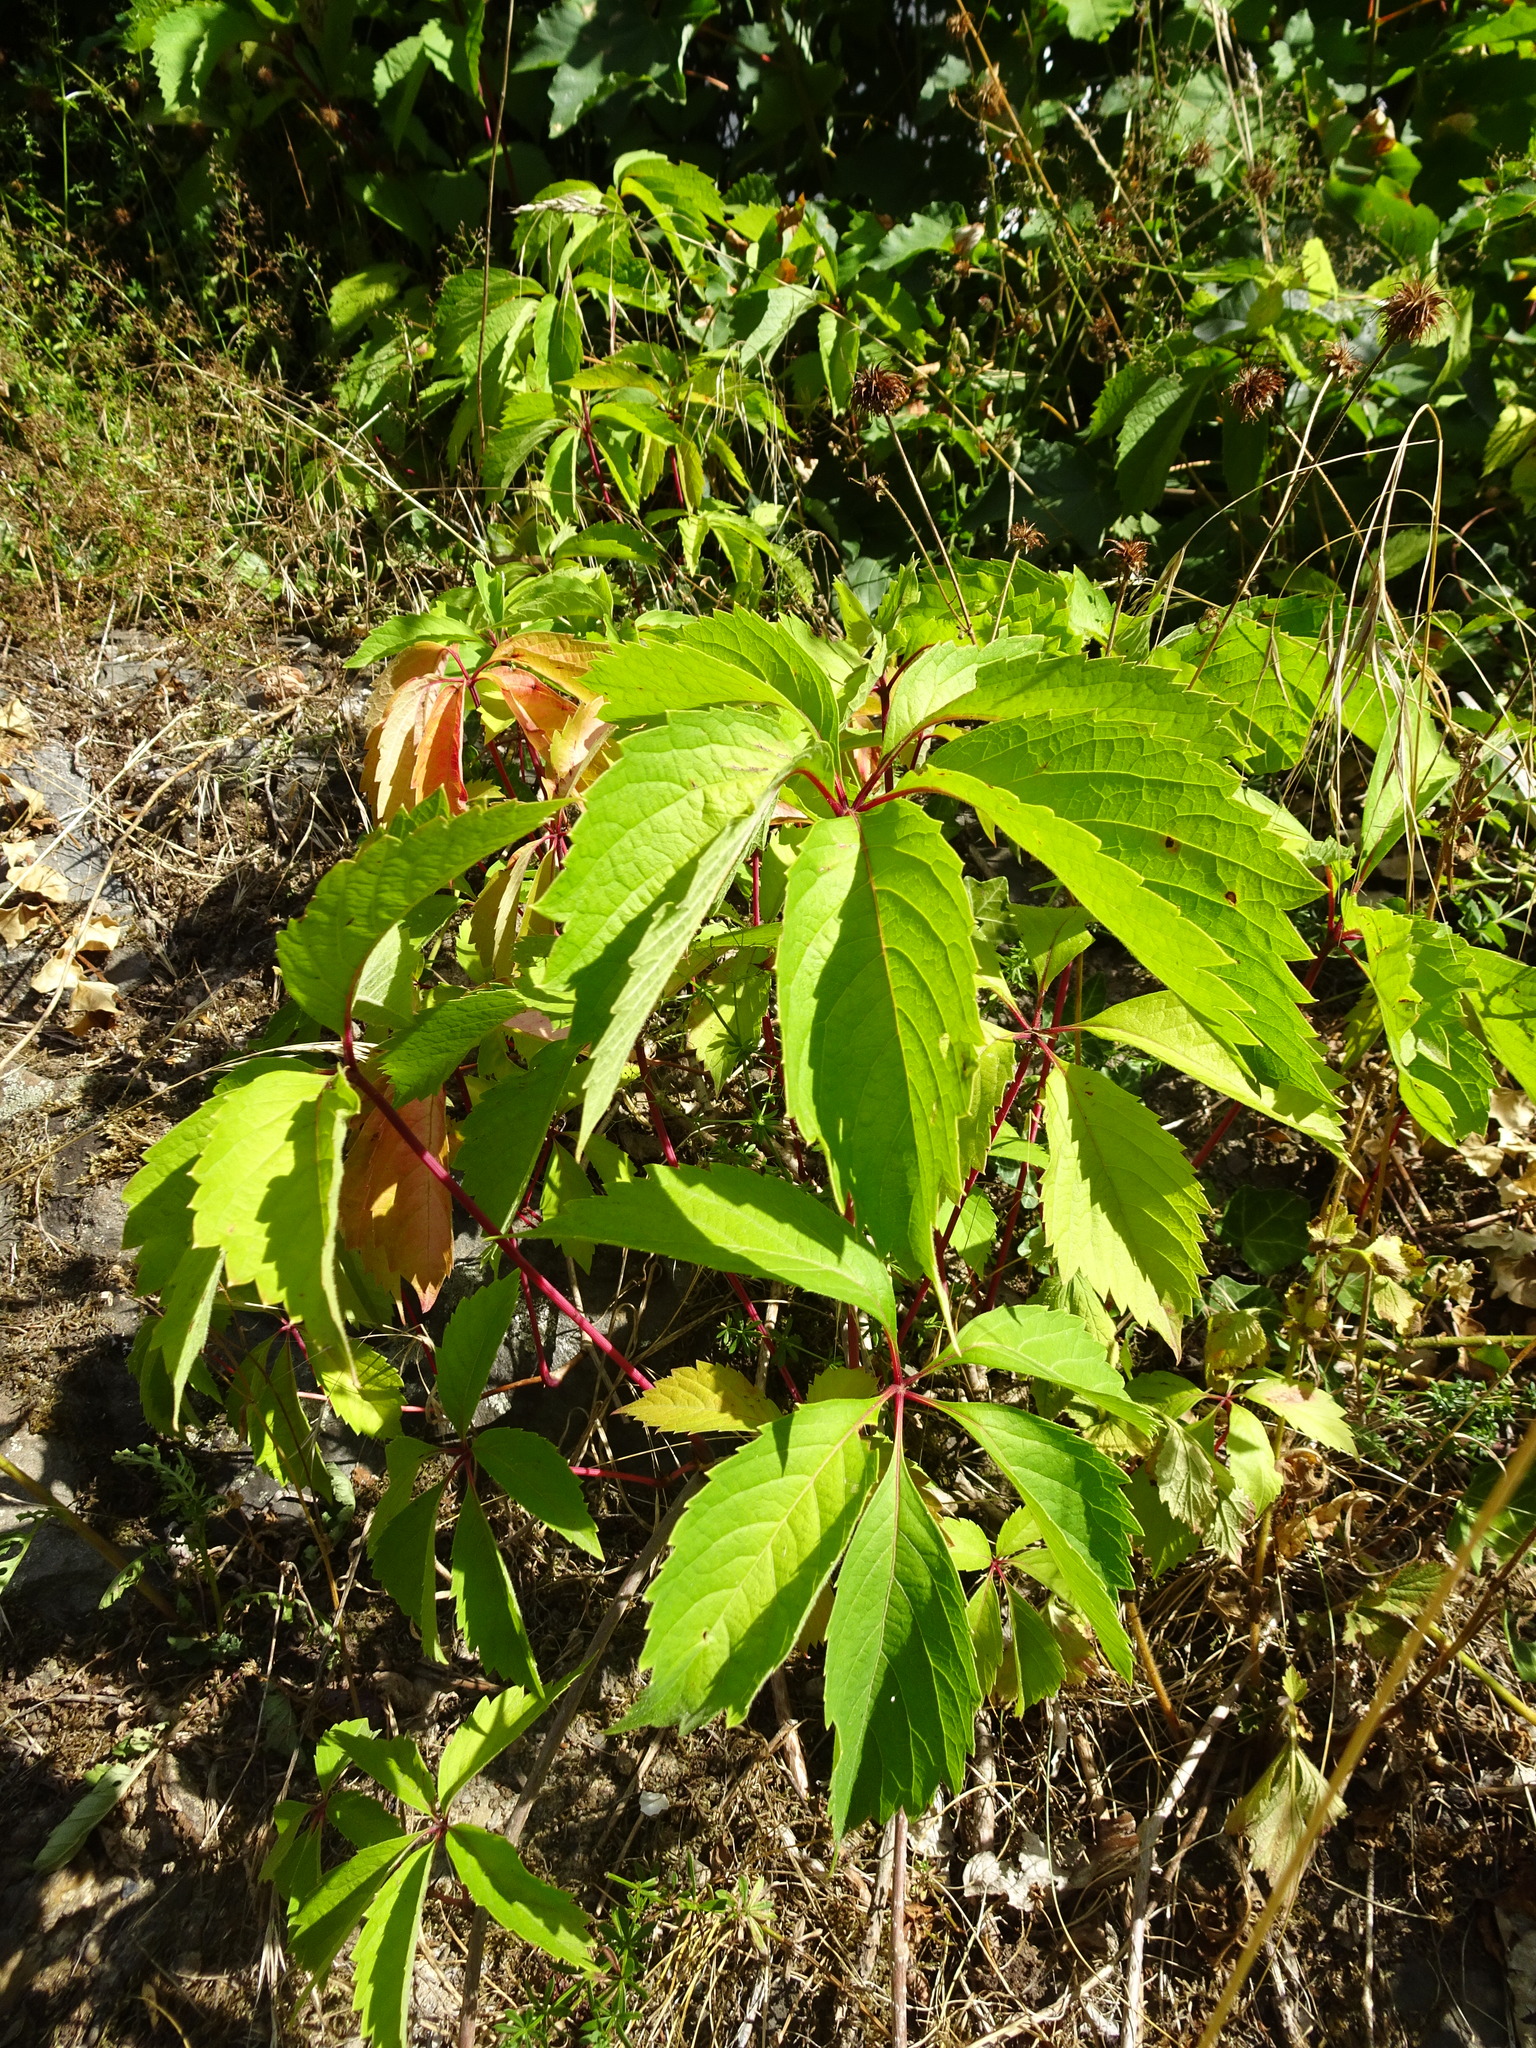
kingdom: Plantae
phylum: Tracheophyta
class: Magnoliopsida
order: Vitales
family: Vitaceae
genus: Parthenocissus
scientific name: Parthenocissus quinquefolia
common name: Virginia-creeper
